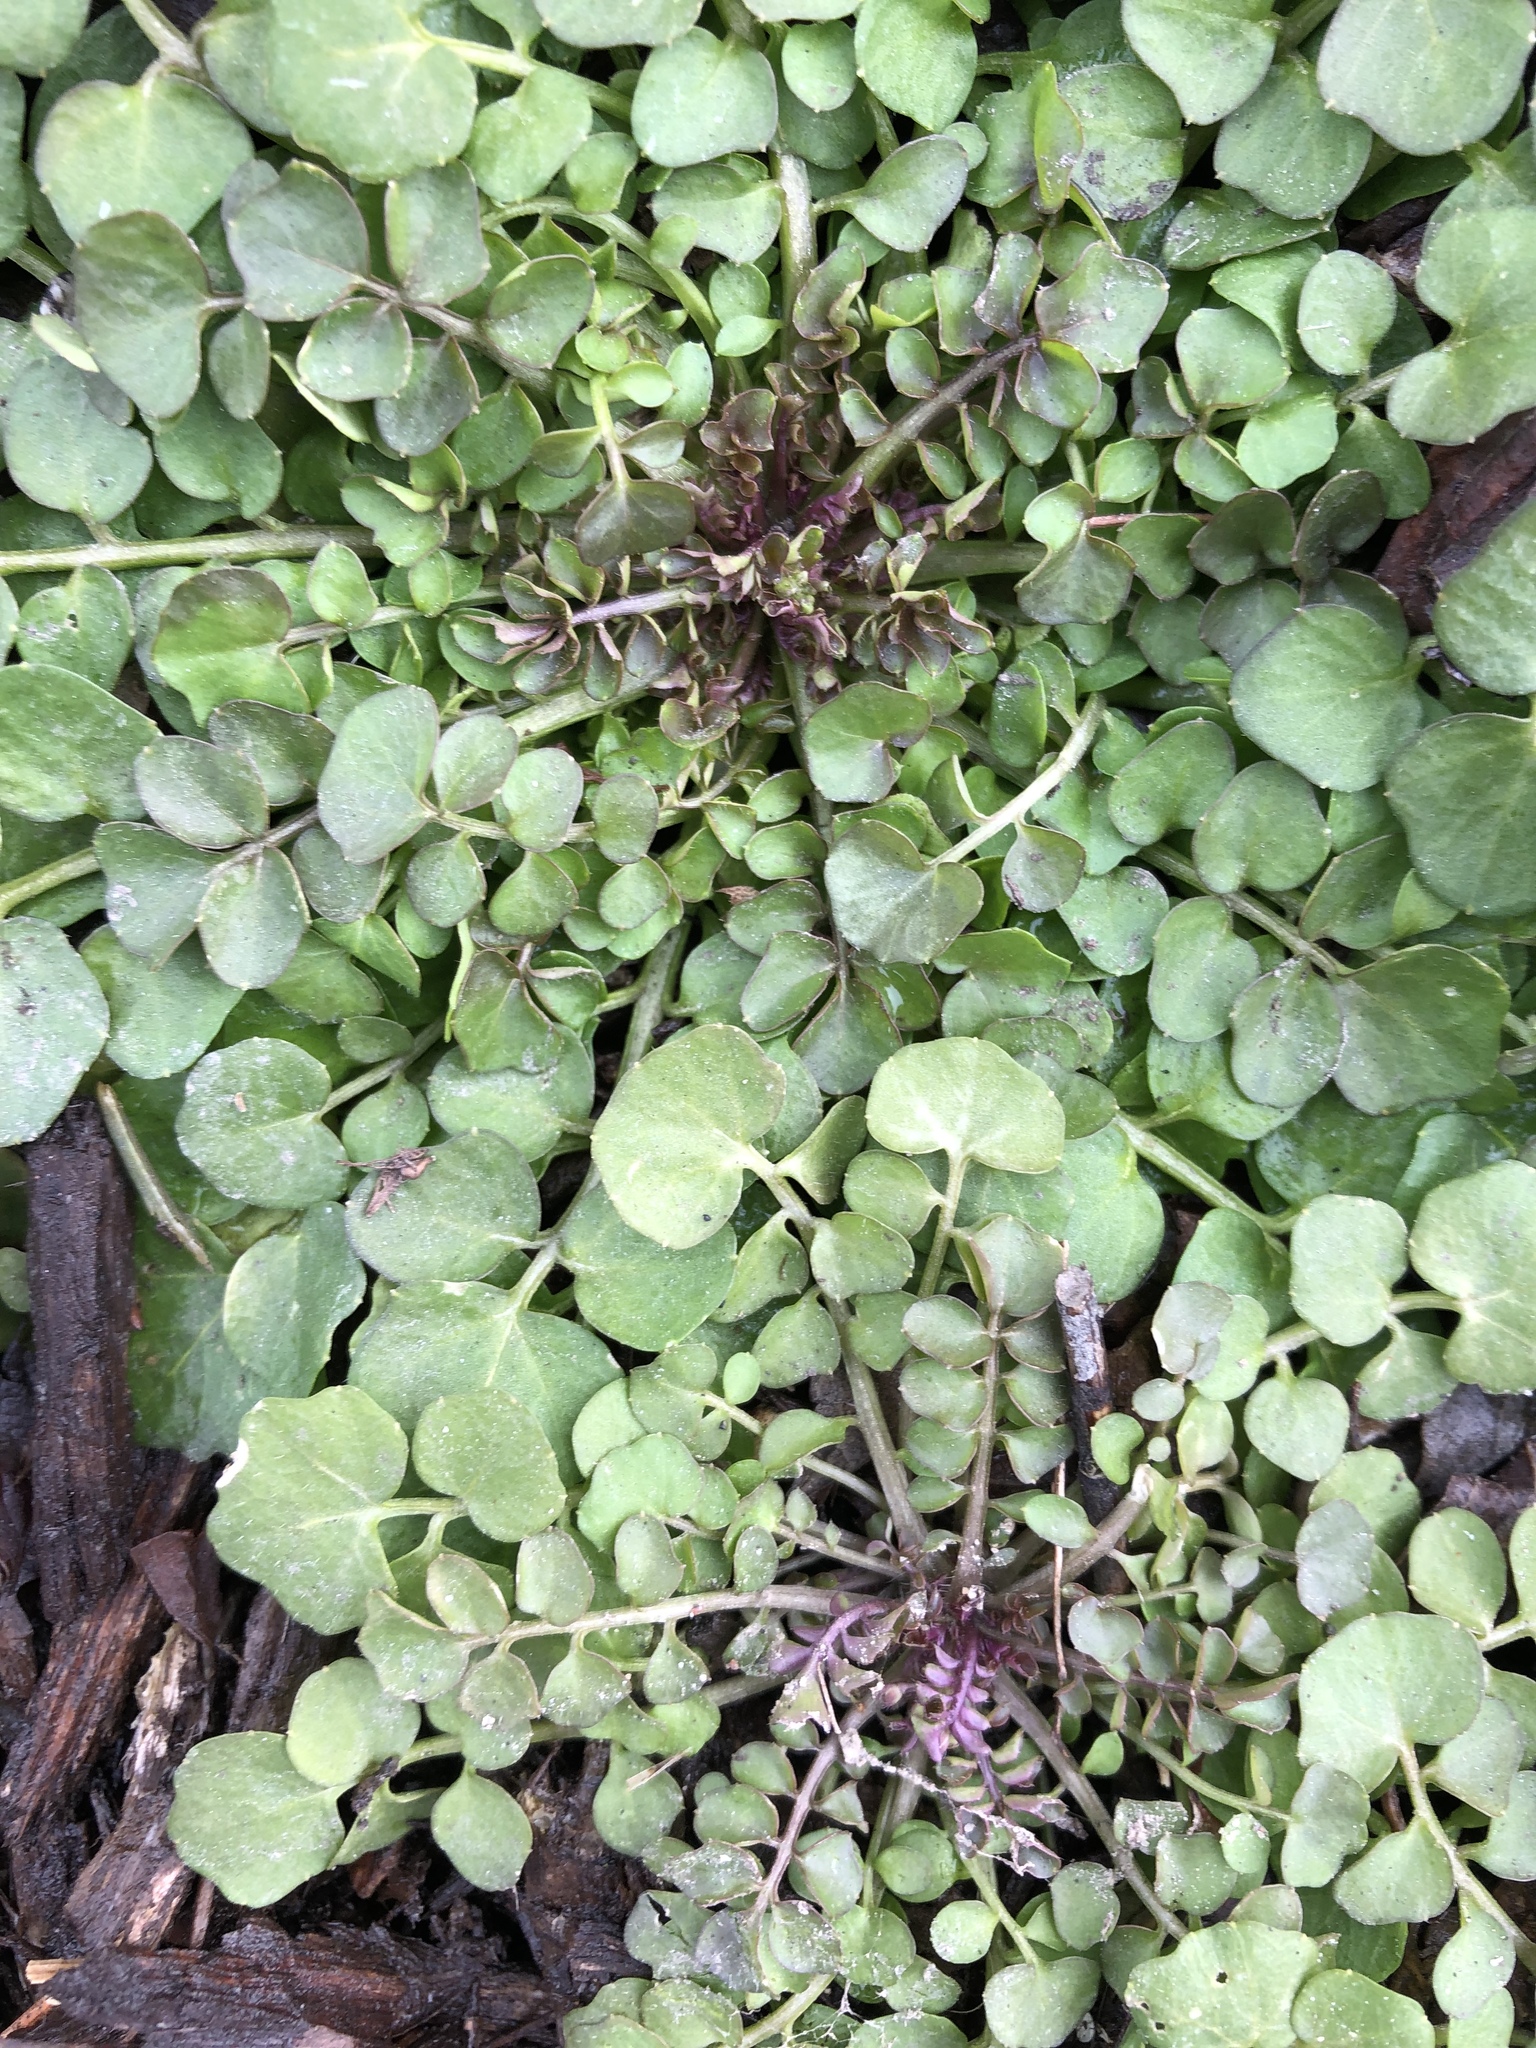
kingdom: Plantae
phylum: Tracheophyta
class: Magnoliopsida
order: Brassicales
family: Brassicaceae
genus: Cardamine
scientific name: Cardamine hirsuta
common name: Hairy bittercress
